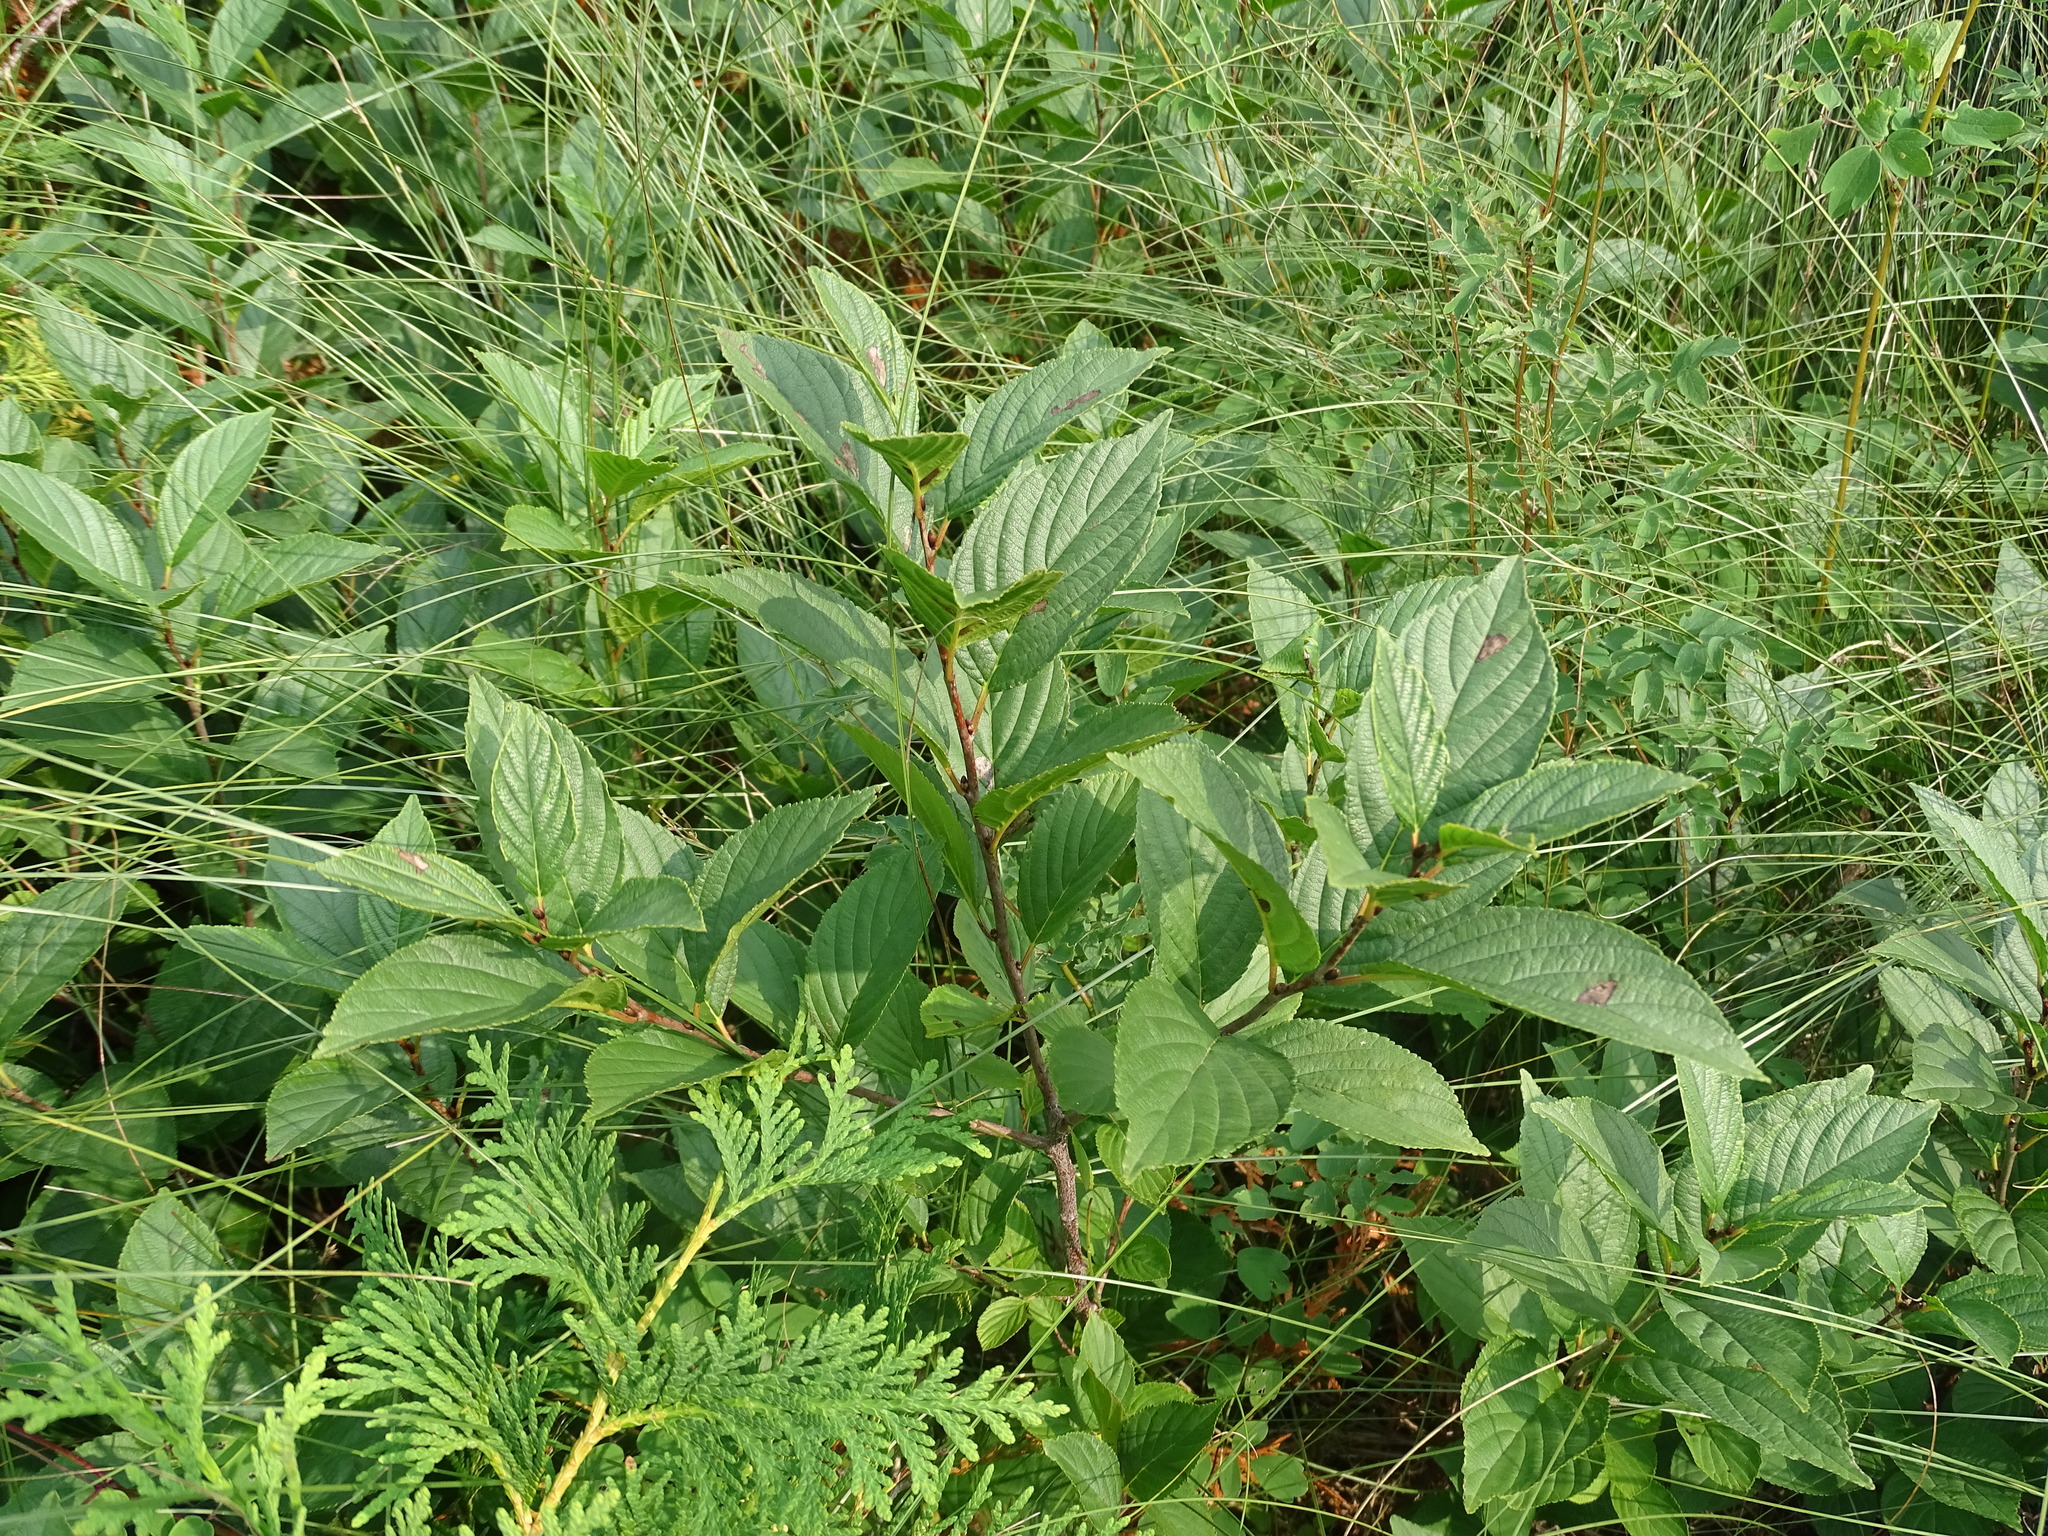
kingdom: Plantae
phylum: Tracheophyta
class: Magnoliopsida
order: Rosales
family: Rhamnaceae
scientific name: Rhamnaceae
